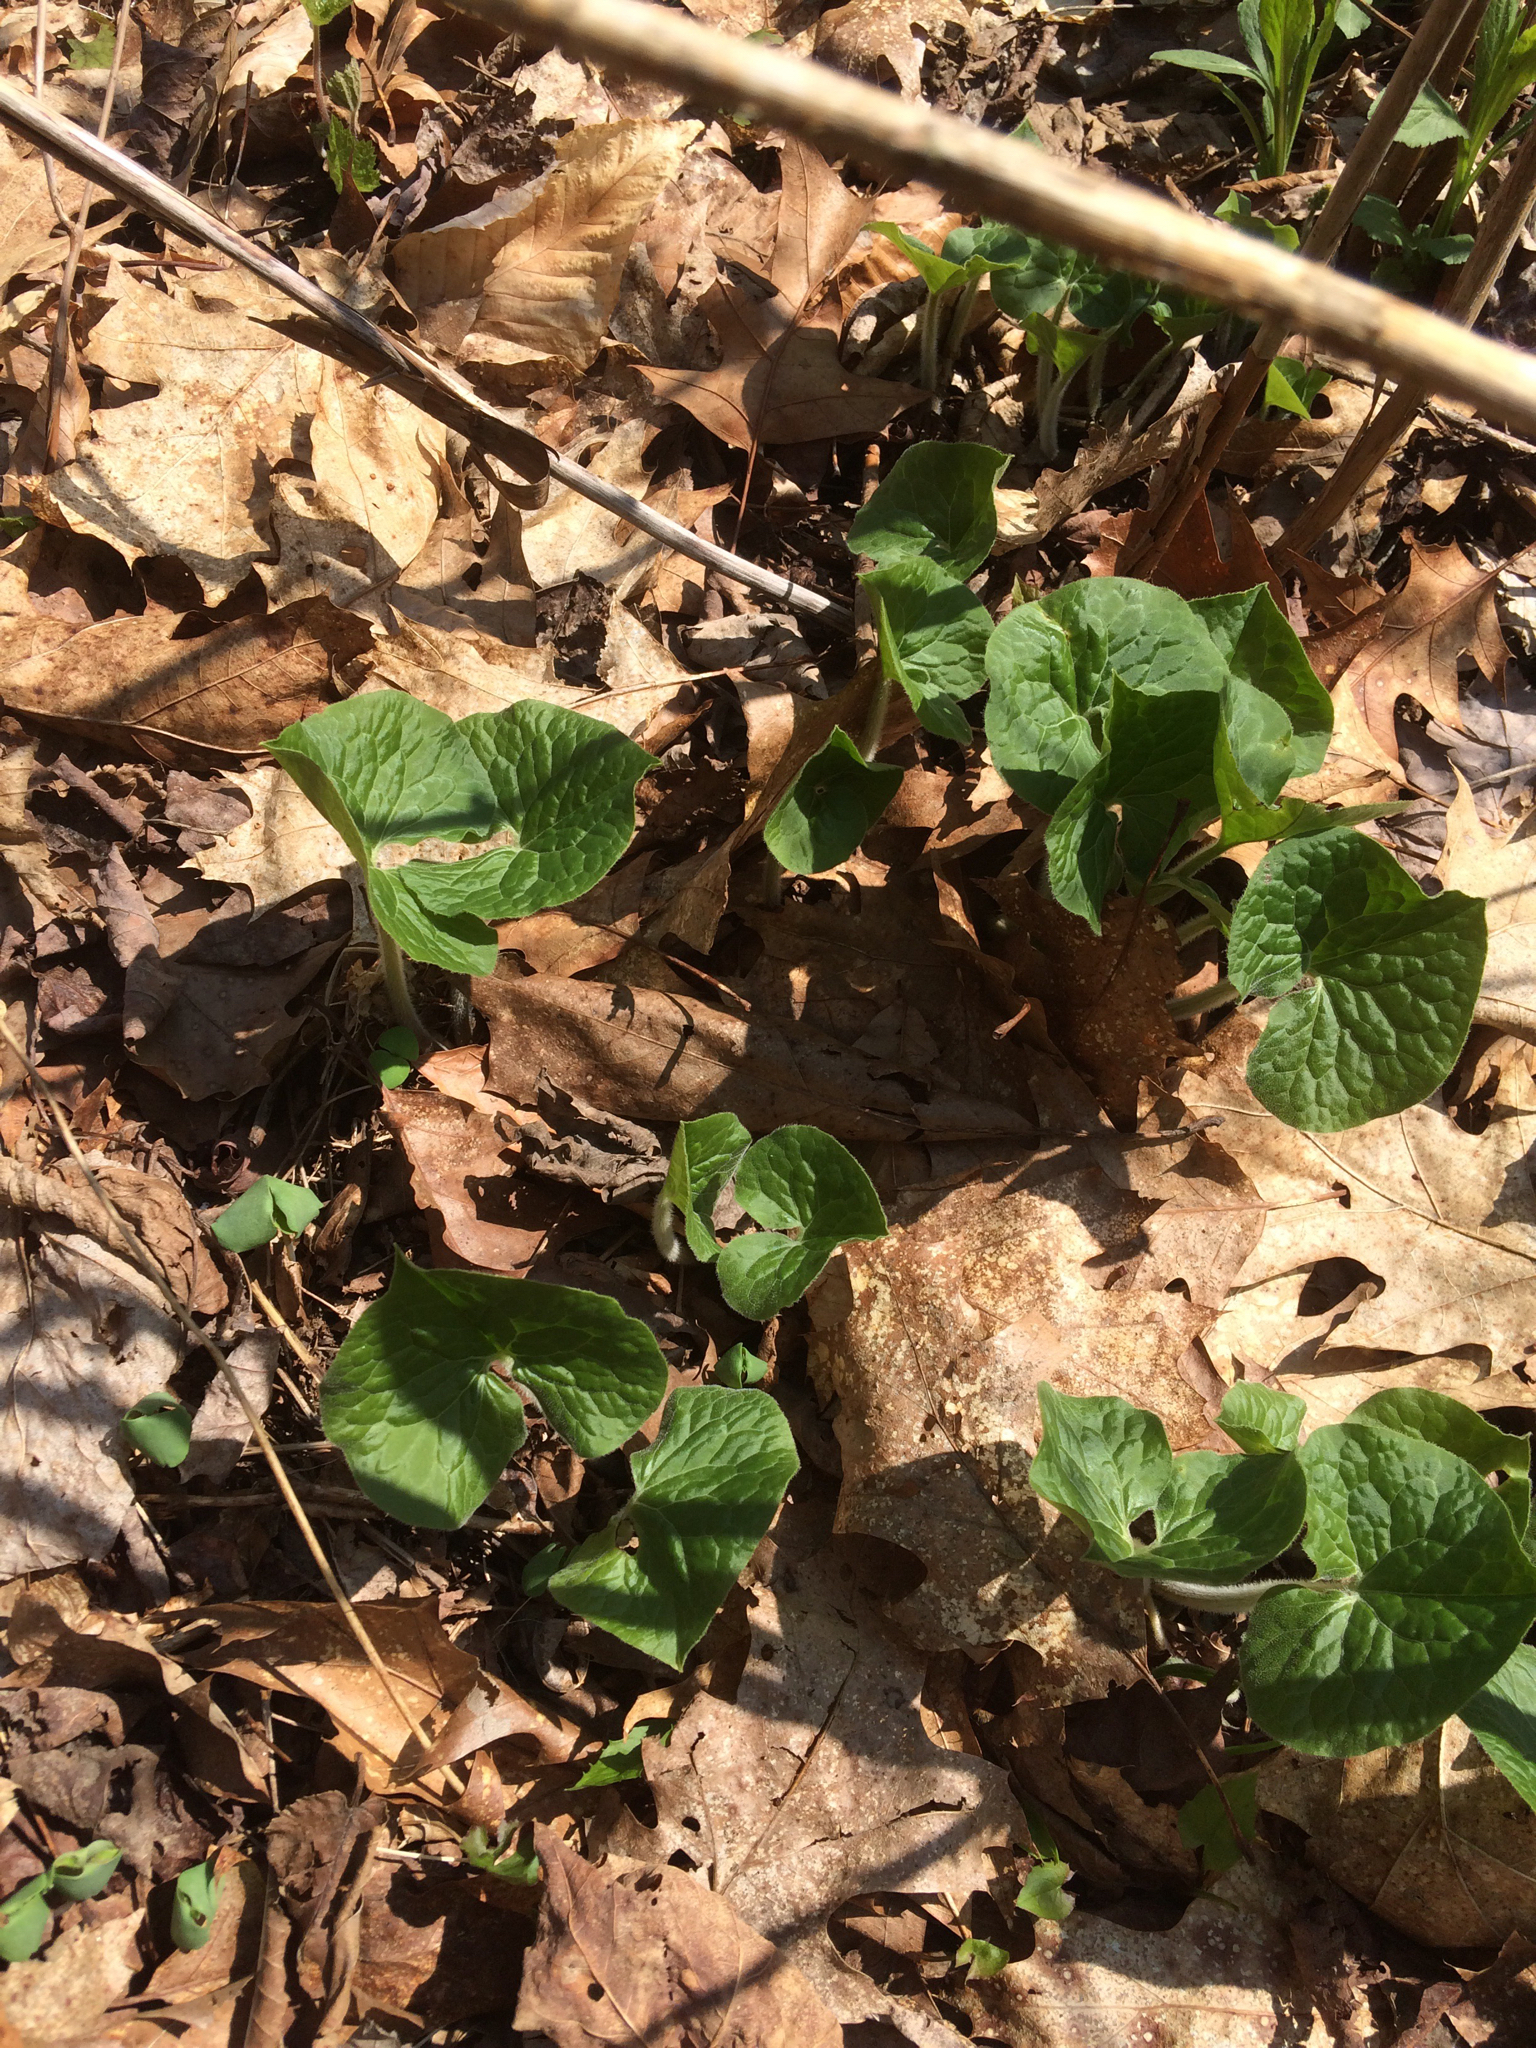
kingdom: Plantae
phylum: Tracheophyta
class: Magnoliopsida
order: Piperales
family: Aristolochiaceae
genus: Asarum
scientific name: Asarum canadense
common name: Wild ginger
